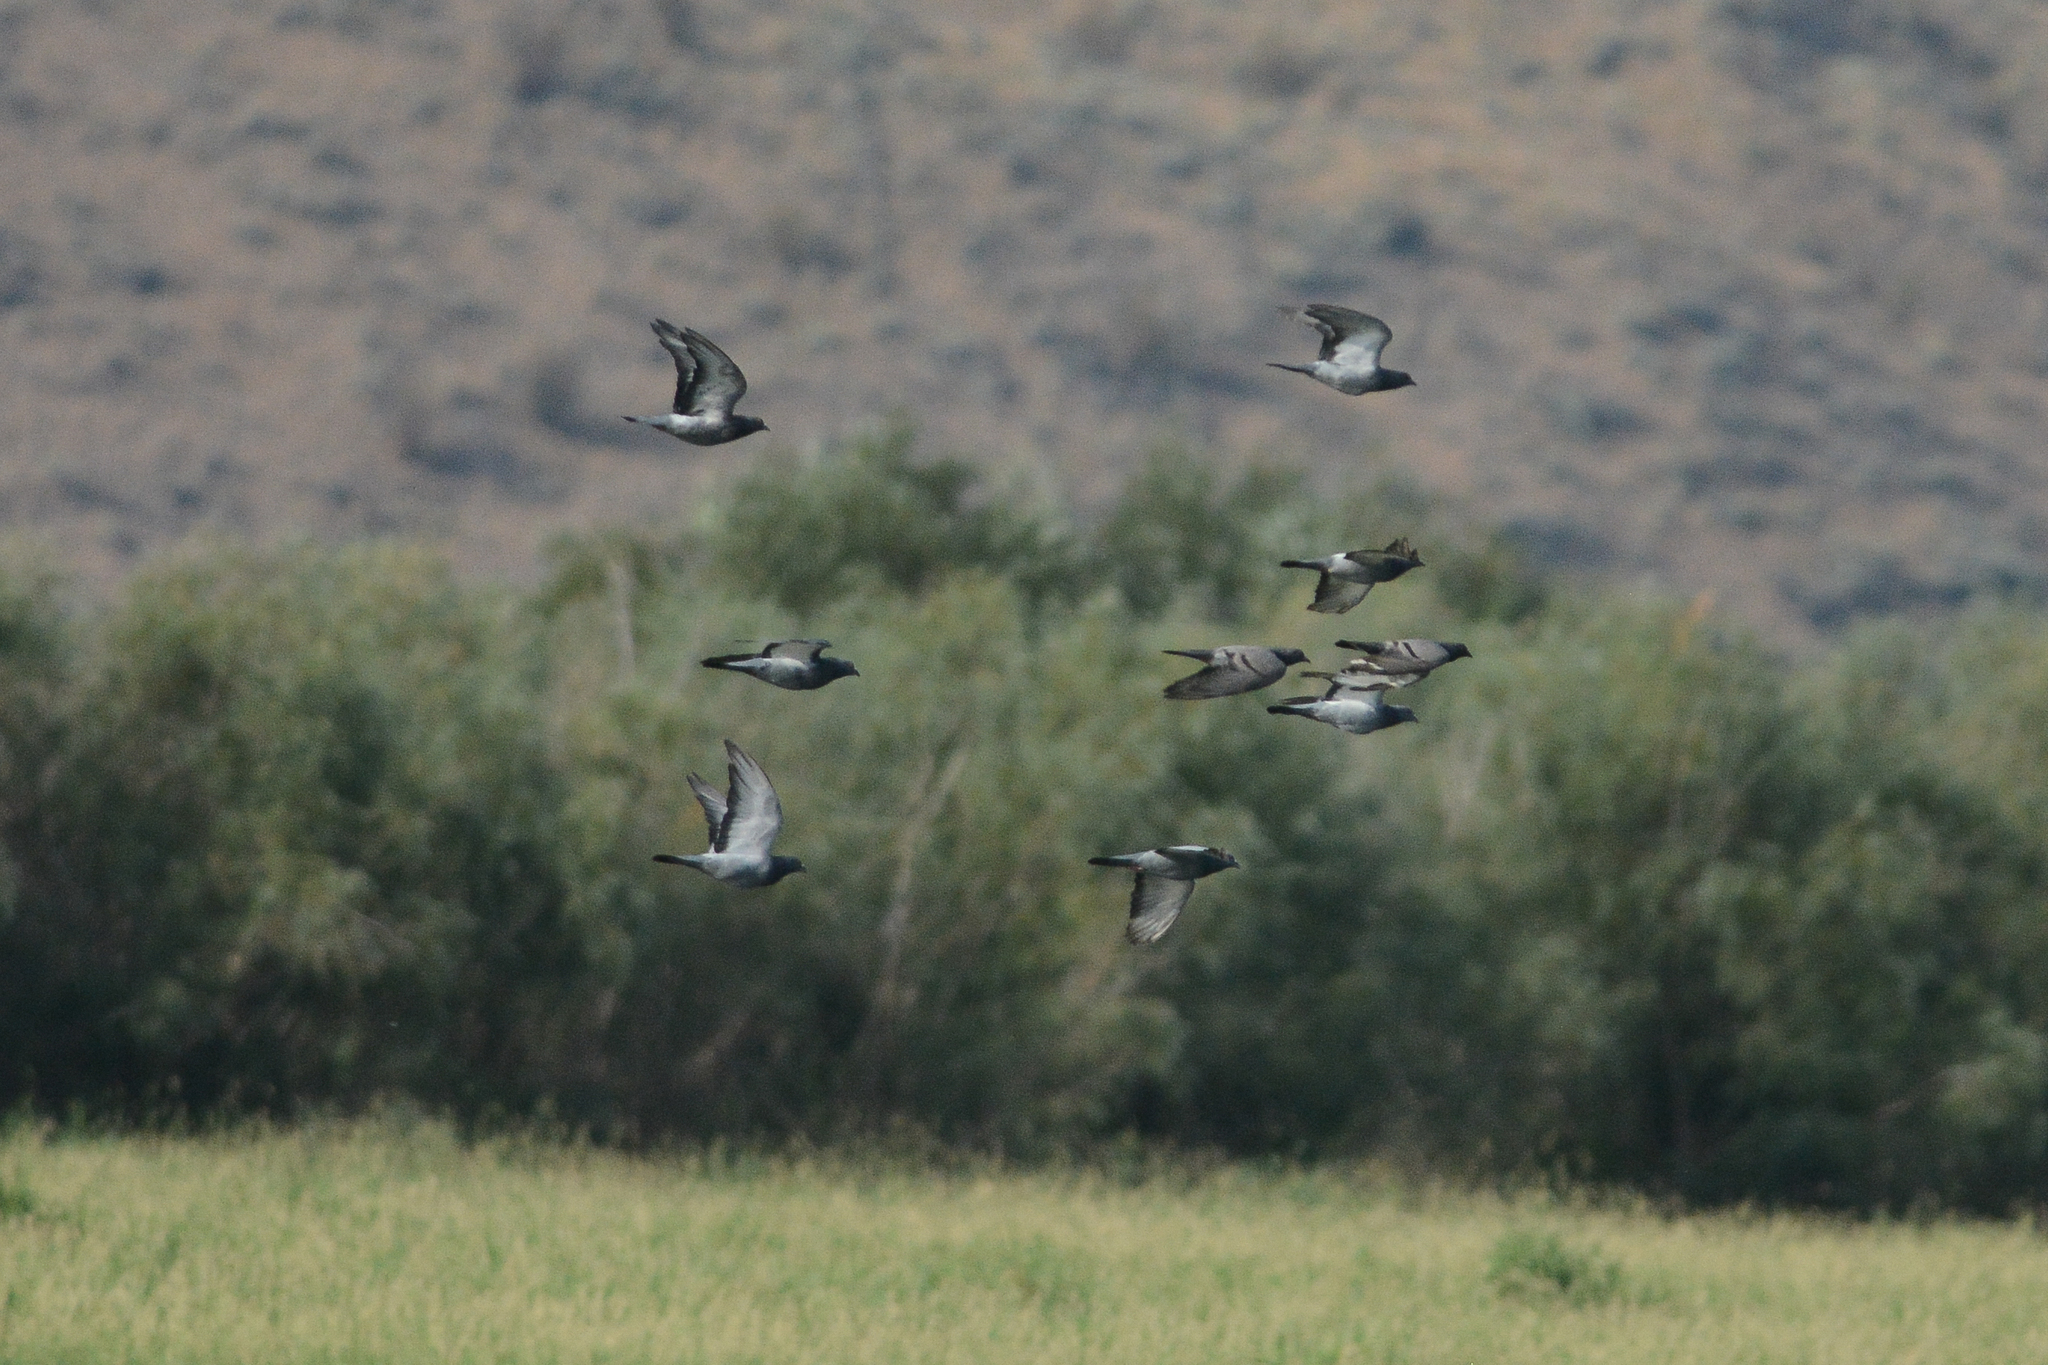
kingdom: Animalia
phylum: Chordata
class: Aves
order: Columbiformes
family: Columbidae
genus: Columba
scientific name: Columba livia
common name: Rock pigeon
